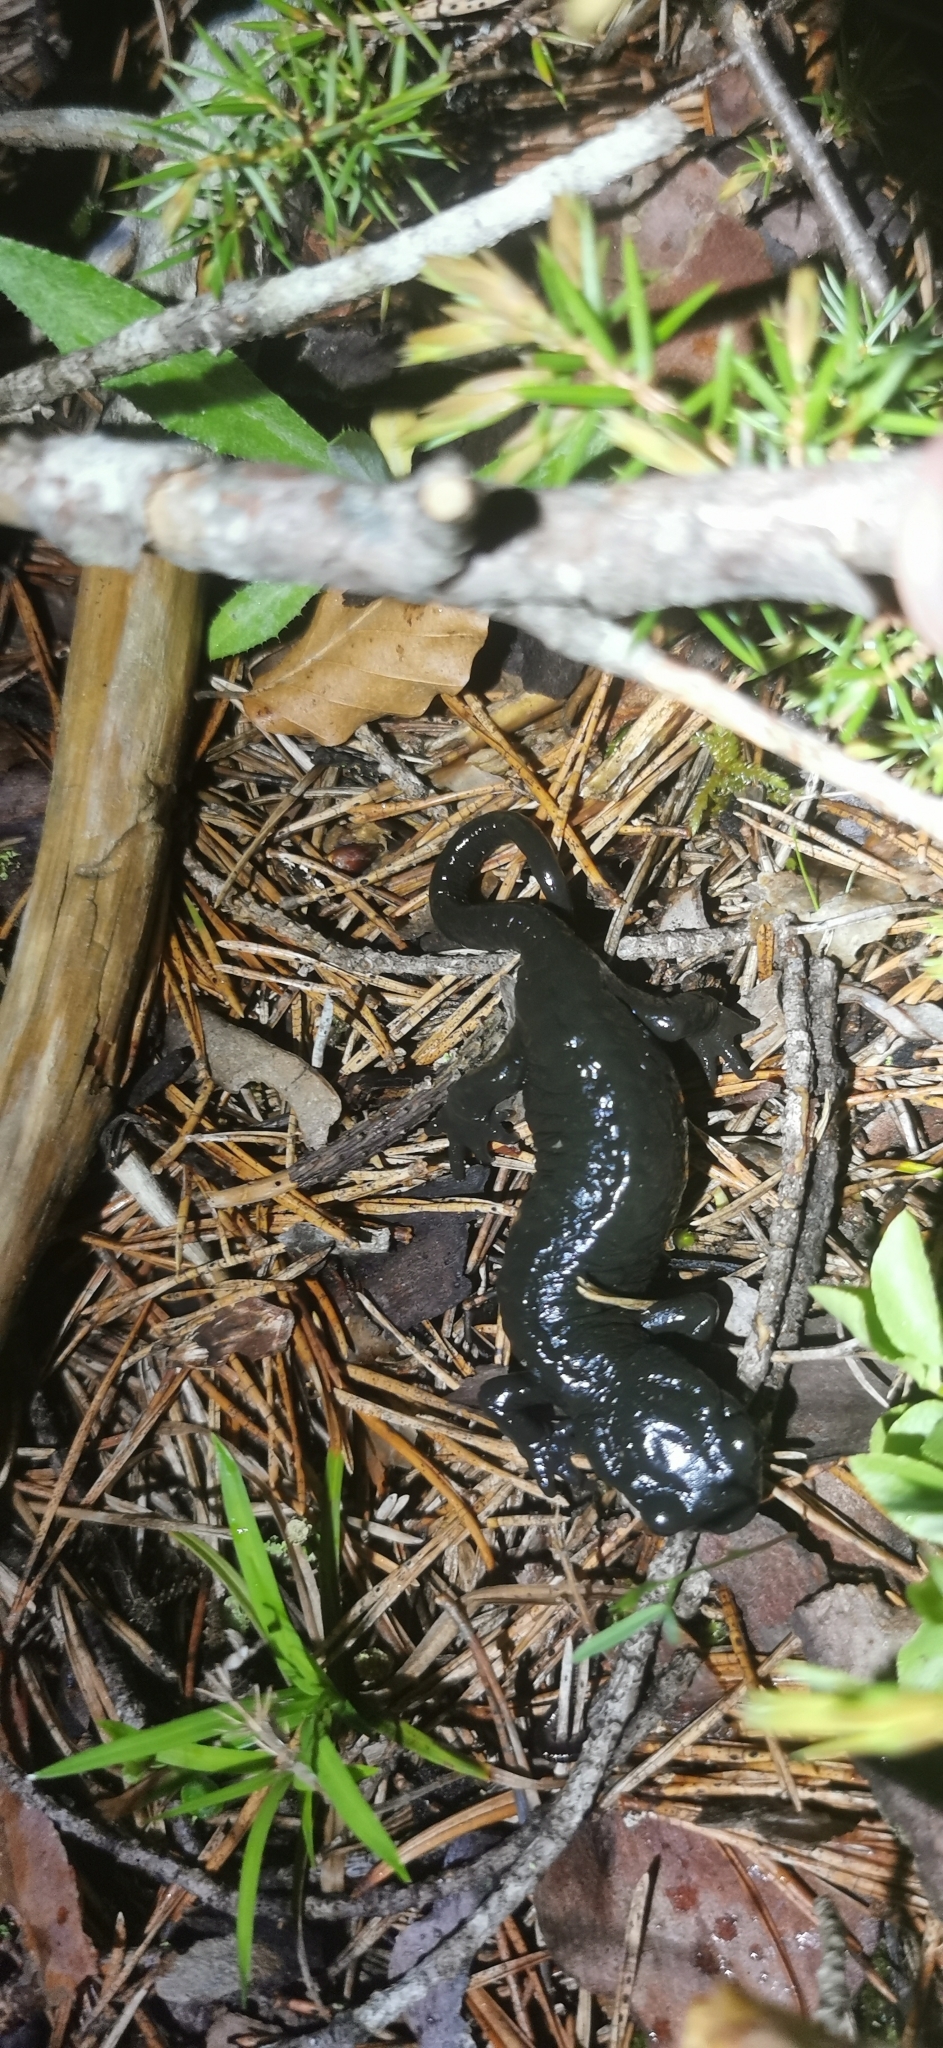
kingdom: Animalia
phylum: Chordata
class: Amphibia
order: Caudata
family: Salamandridae
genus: Salamandra
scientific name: Salamandra atra
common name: Alpine salamander
